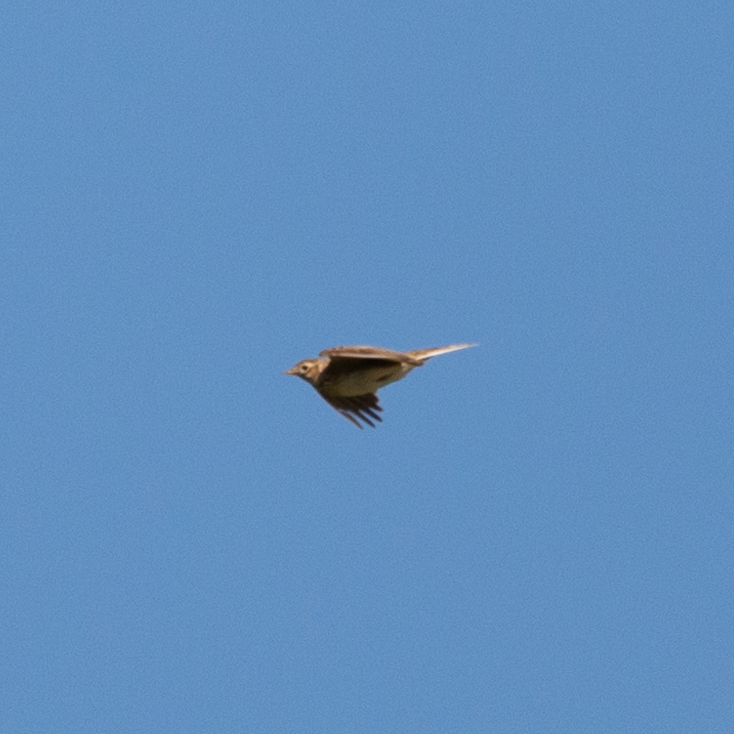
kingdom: Animalia
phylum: Chordata
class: Aves
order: Passeriformes
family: Alaudidae
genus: Alauda
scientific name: Alauda arvensis
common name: Eurasian skylark
